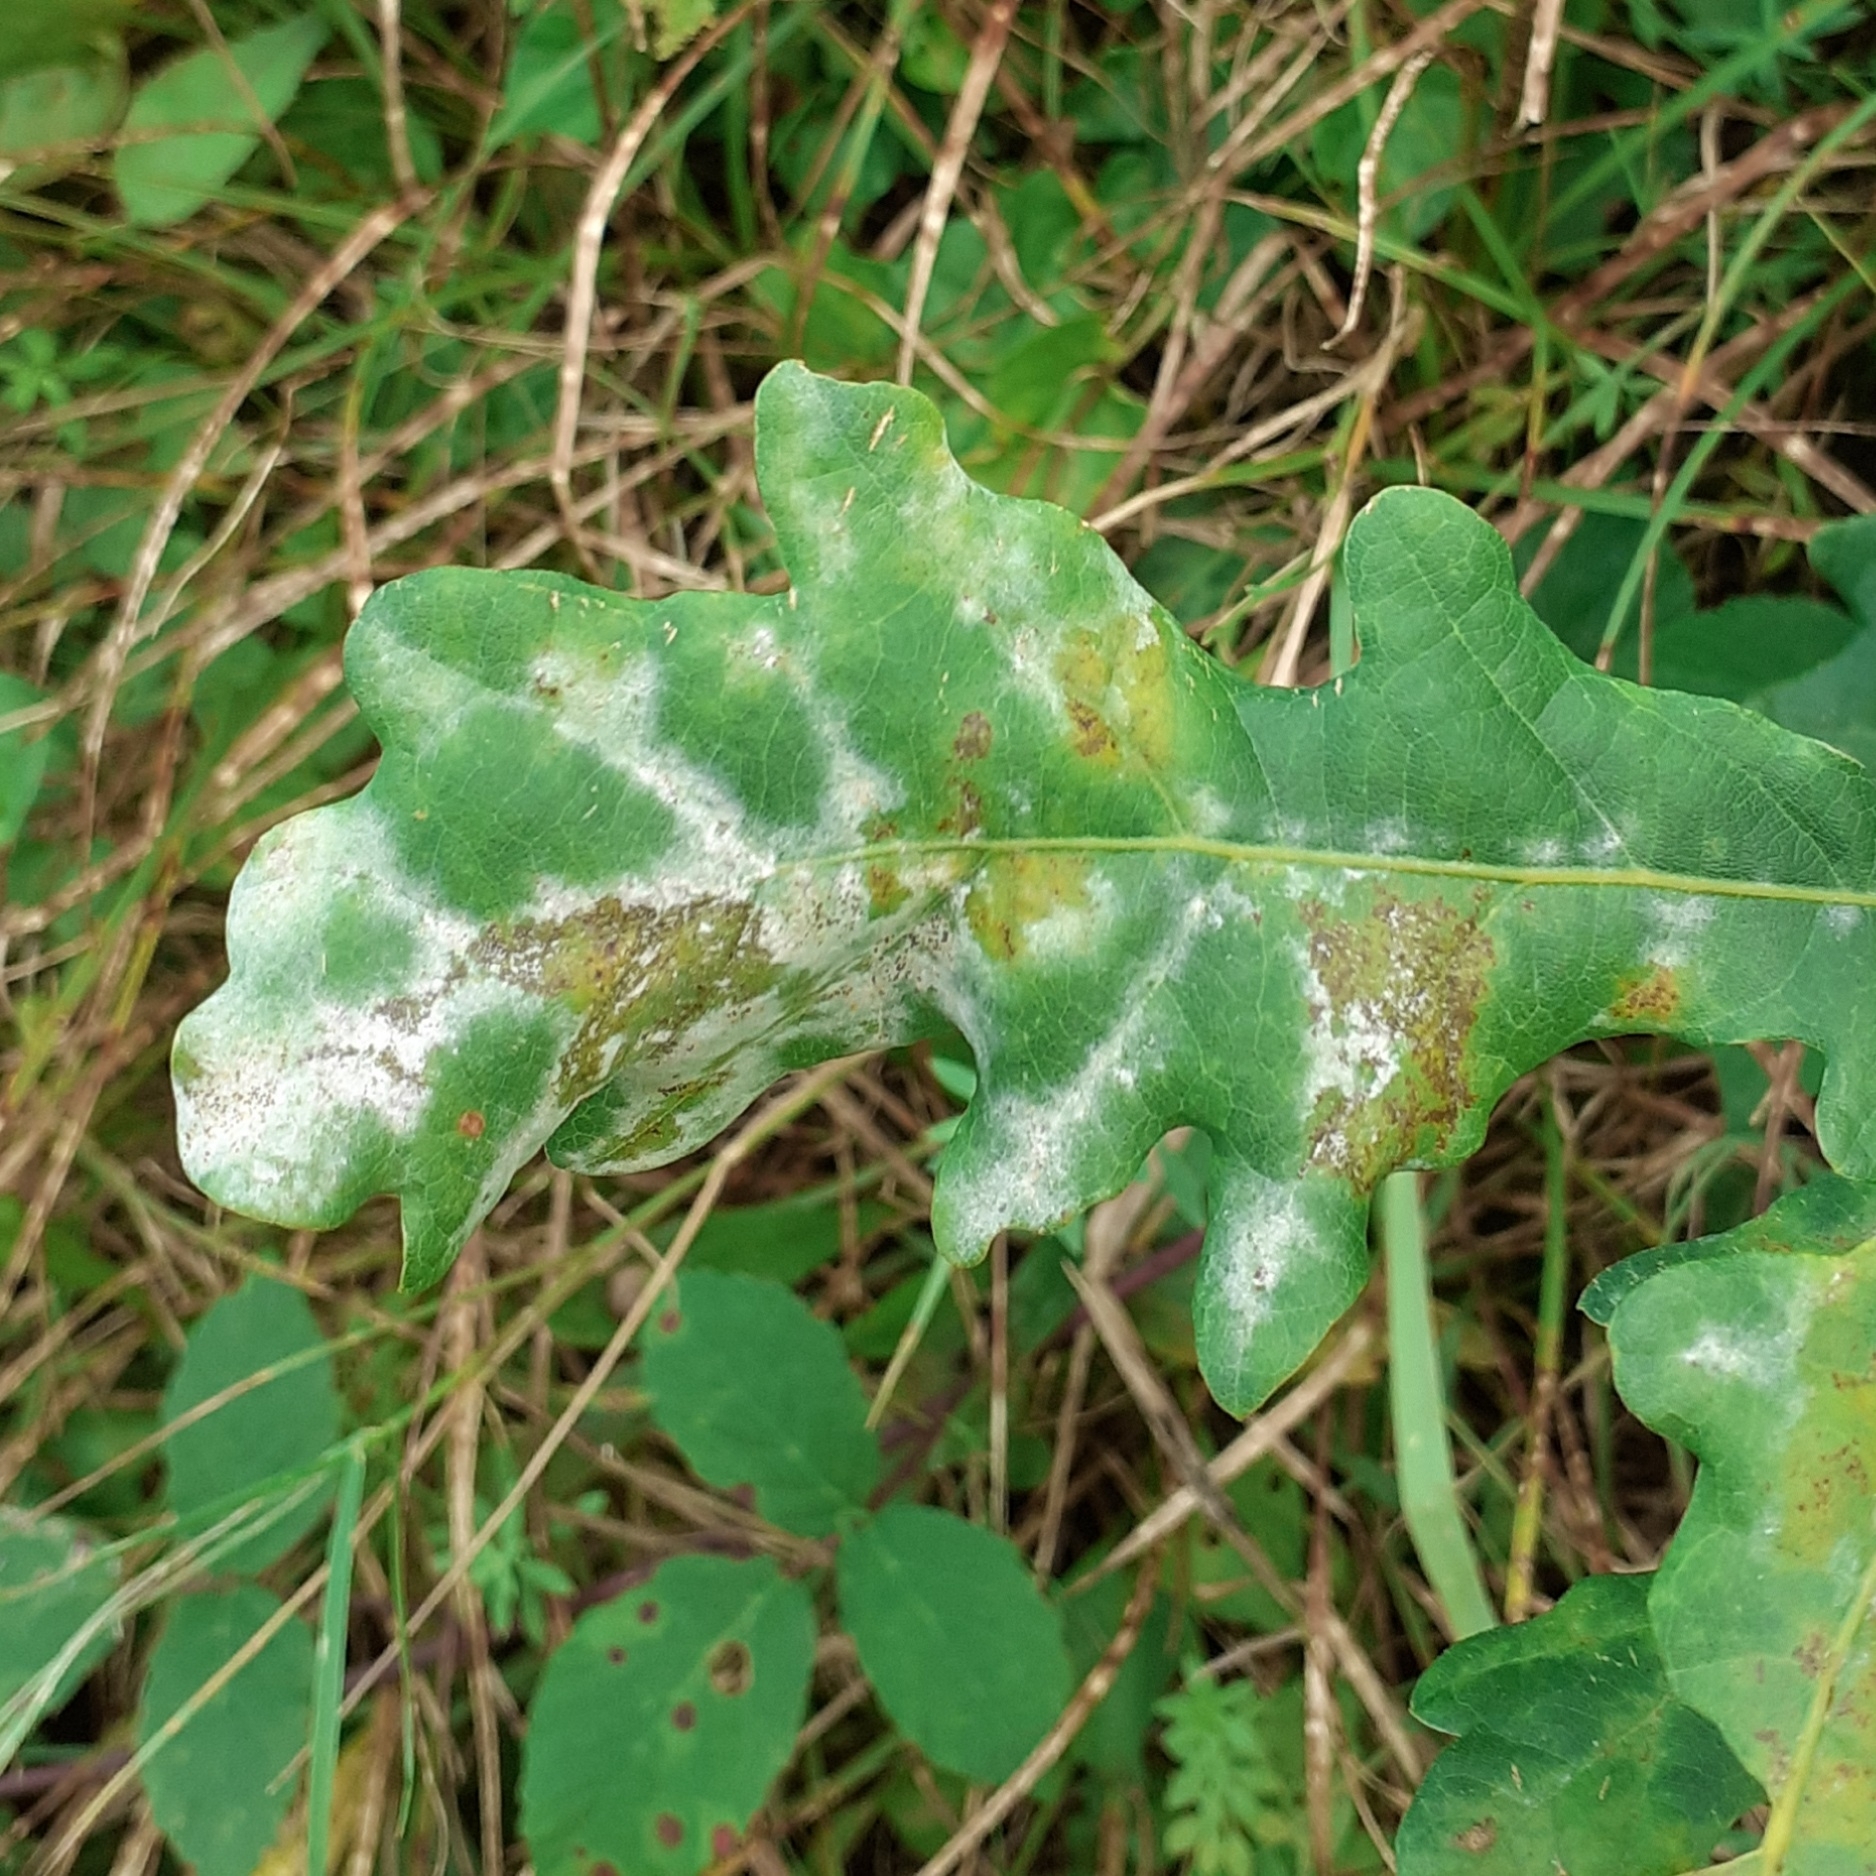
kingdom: Fungi
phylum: Ascomycota
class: Leotiomycetes
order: Helotiales
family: Erysiphaceae
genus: Erysiphe
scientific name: Erysiphe
